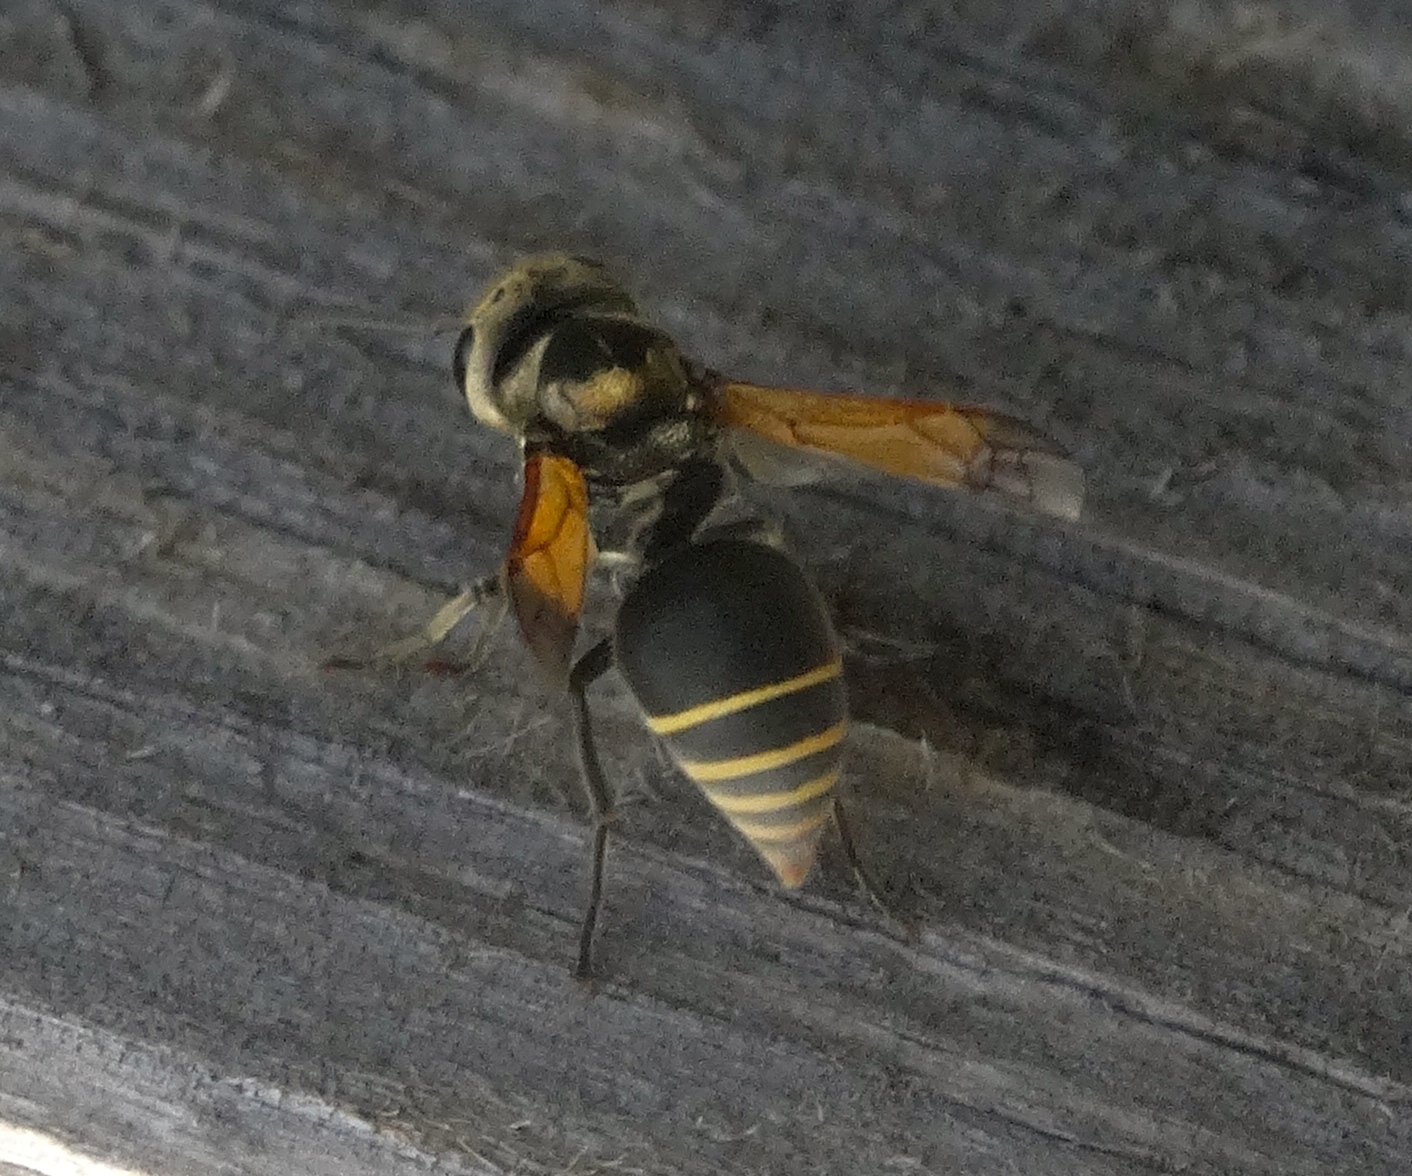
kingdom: Animalia
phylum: Arthropoda
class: Insecta
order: Hymenoptera
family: Vespidae
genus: Brachygastra
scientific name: Brachygastra mellifica
